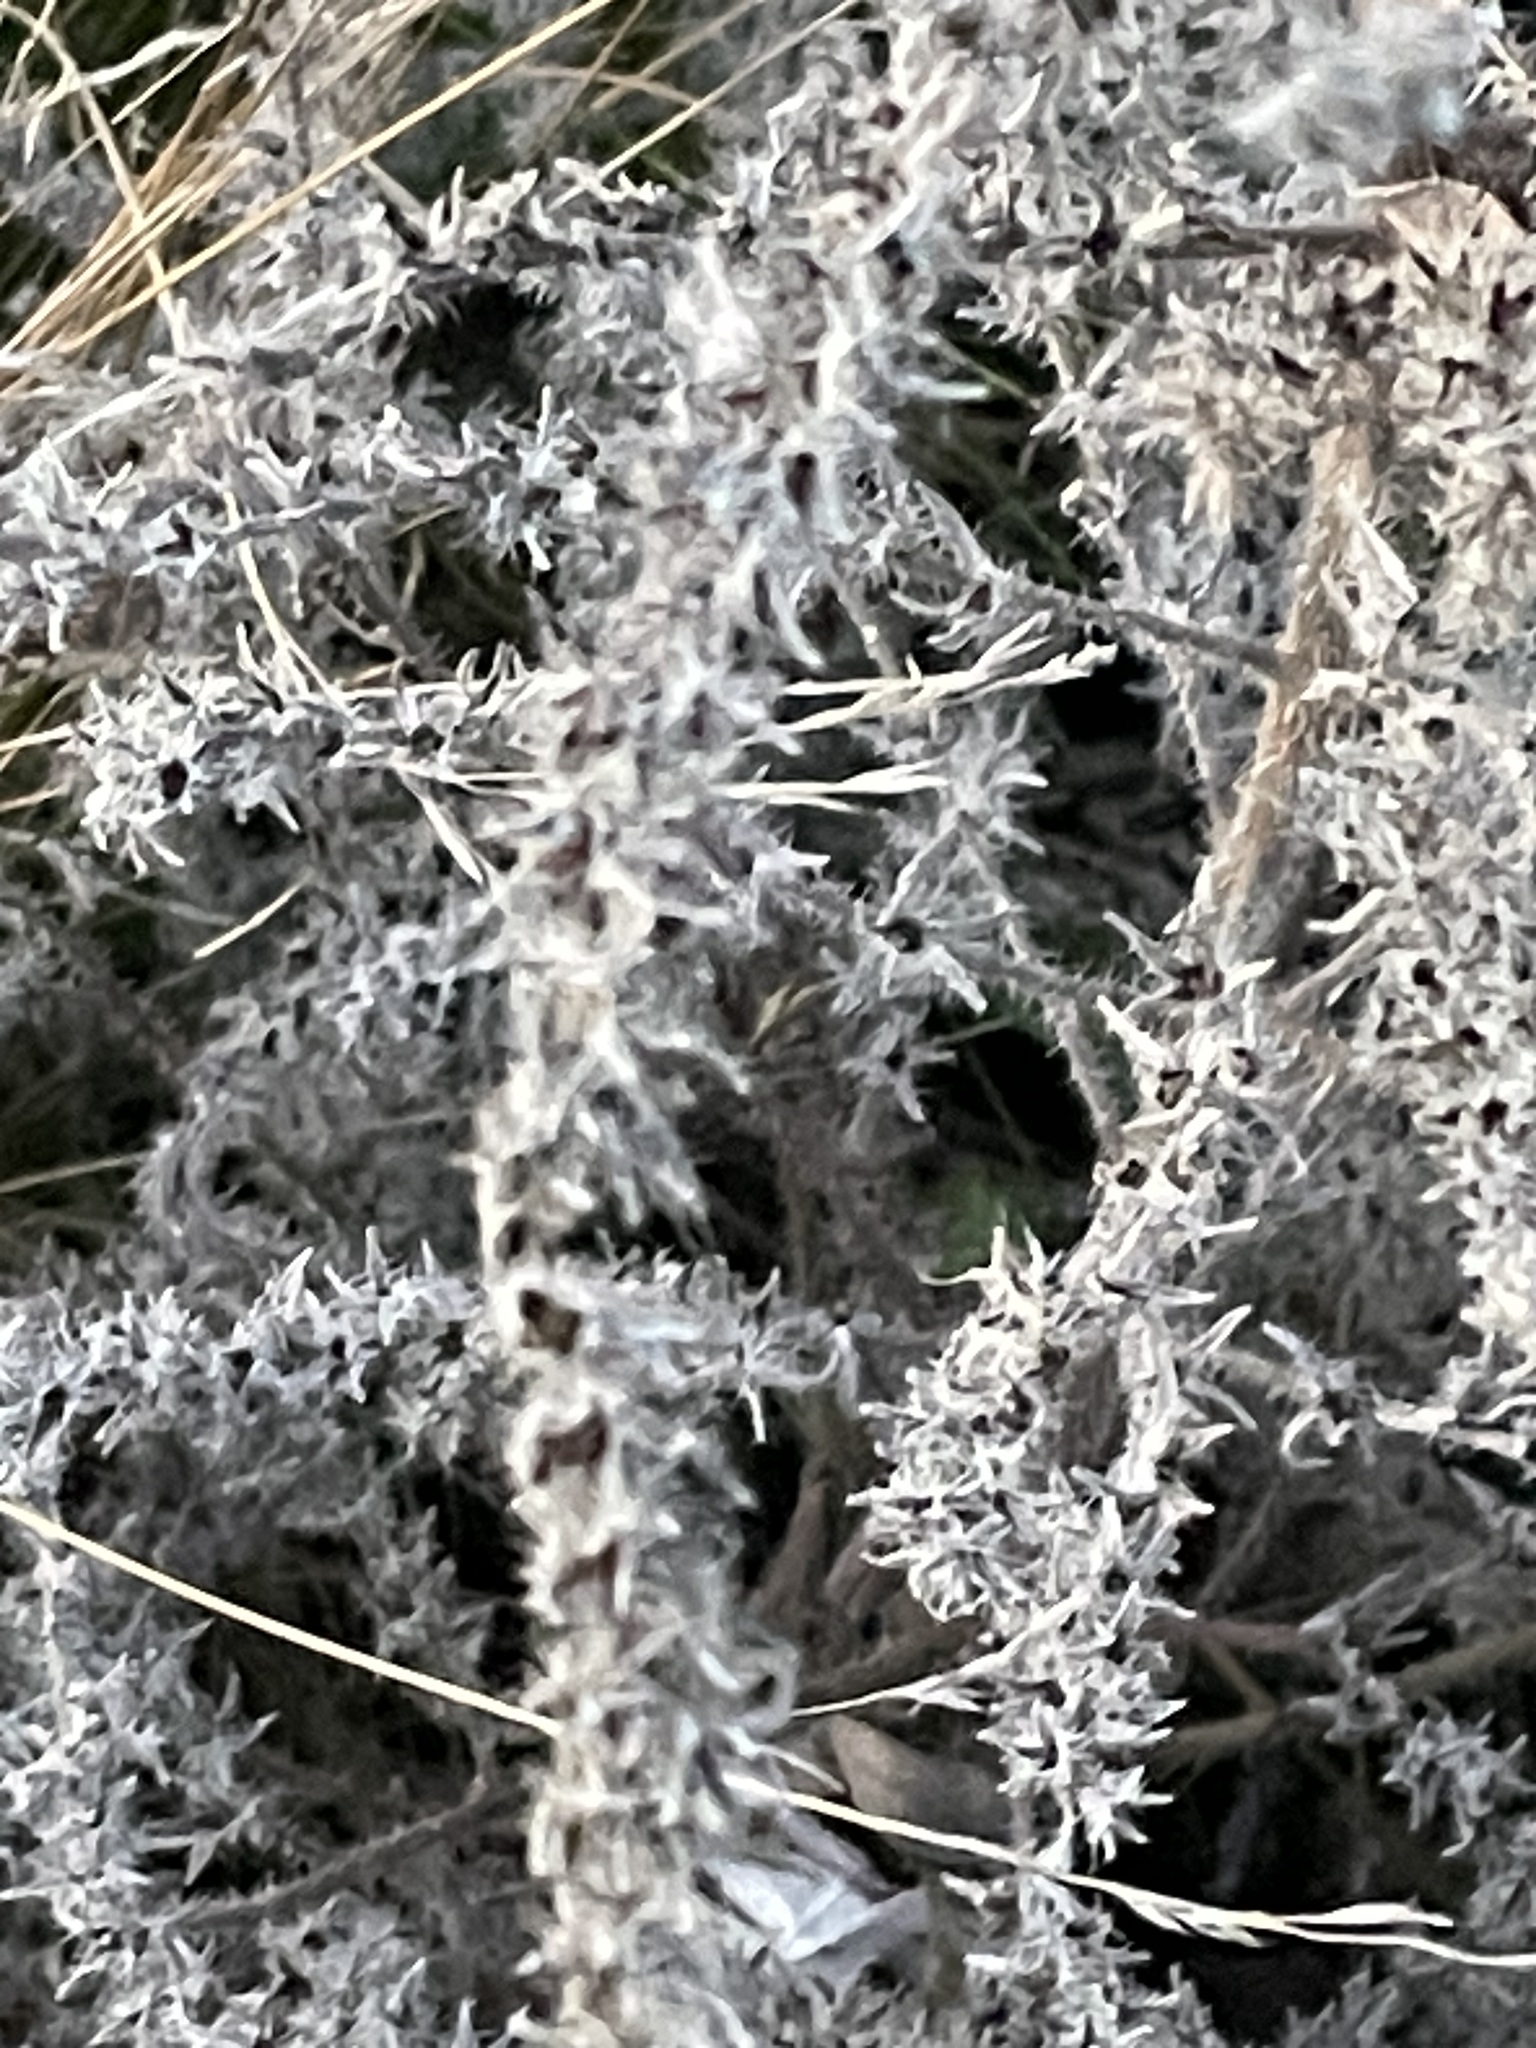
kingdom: Plantae
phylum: Tracheophyta
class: Magnoliopsida
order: Boraginales
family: Boraginaceae
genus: Echium
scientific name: Echium vulgare
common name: Common viper's bugloss
